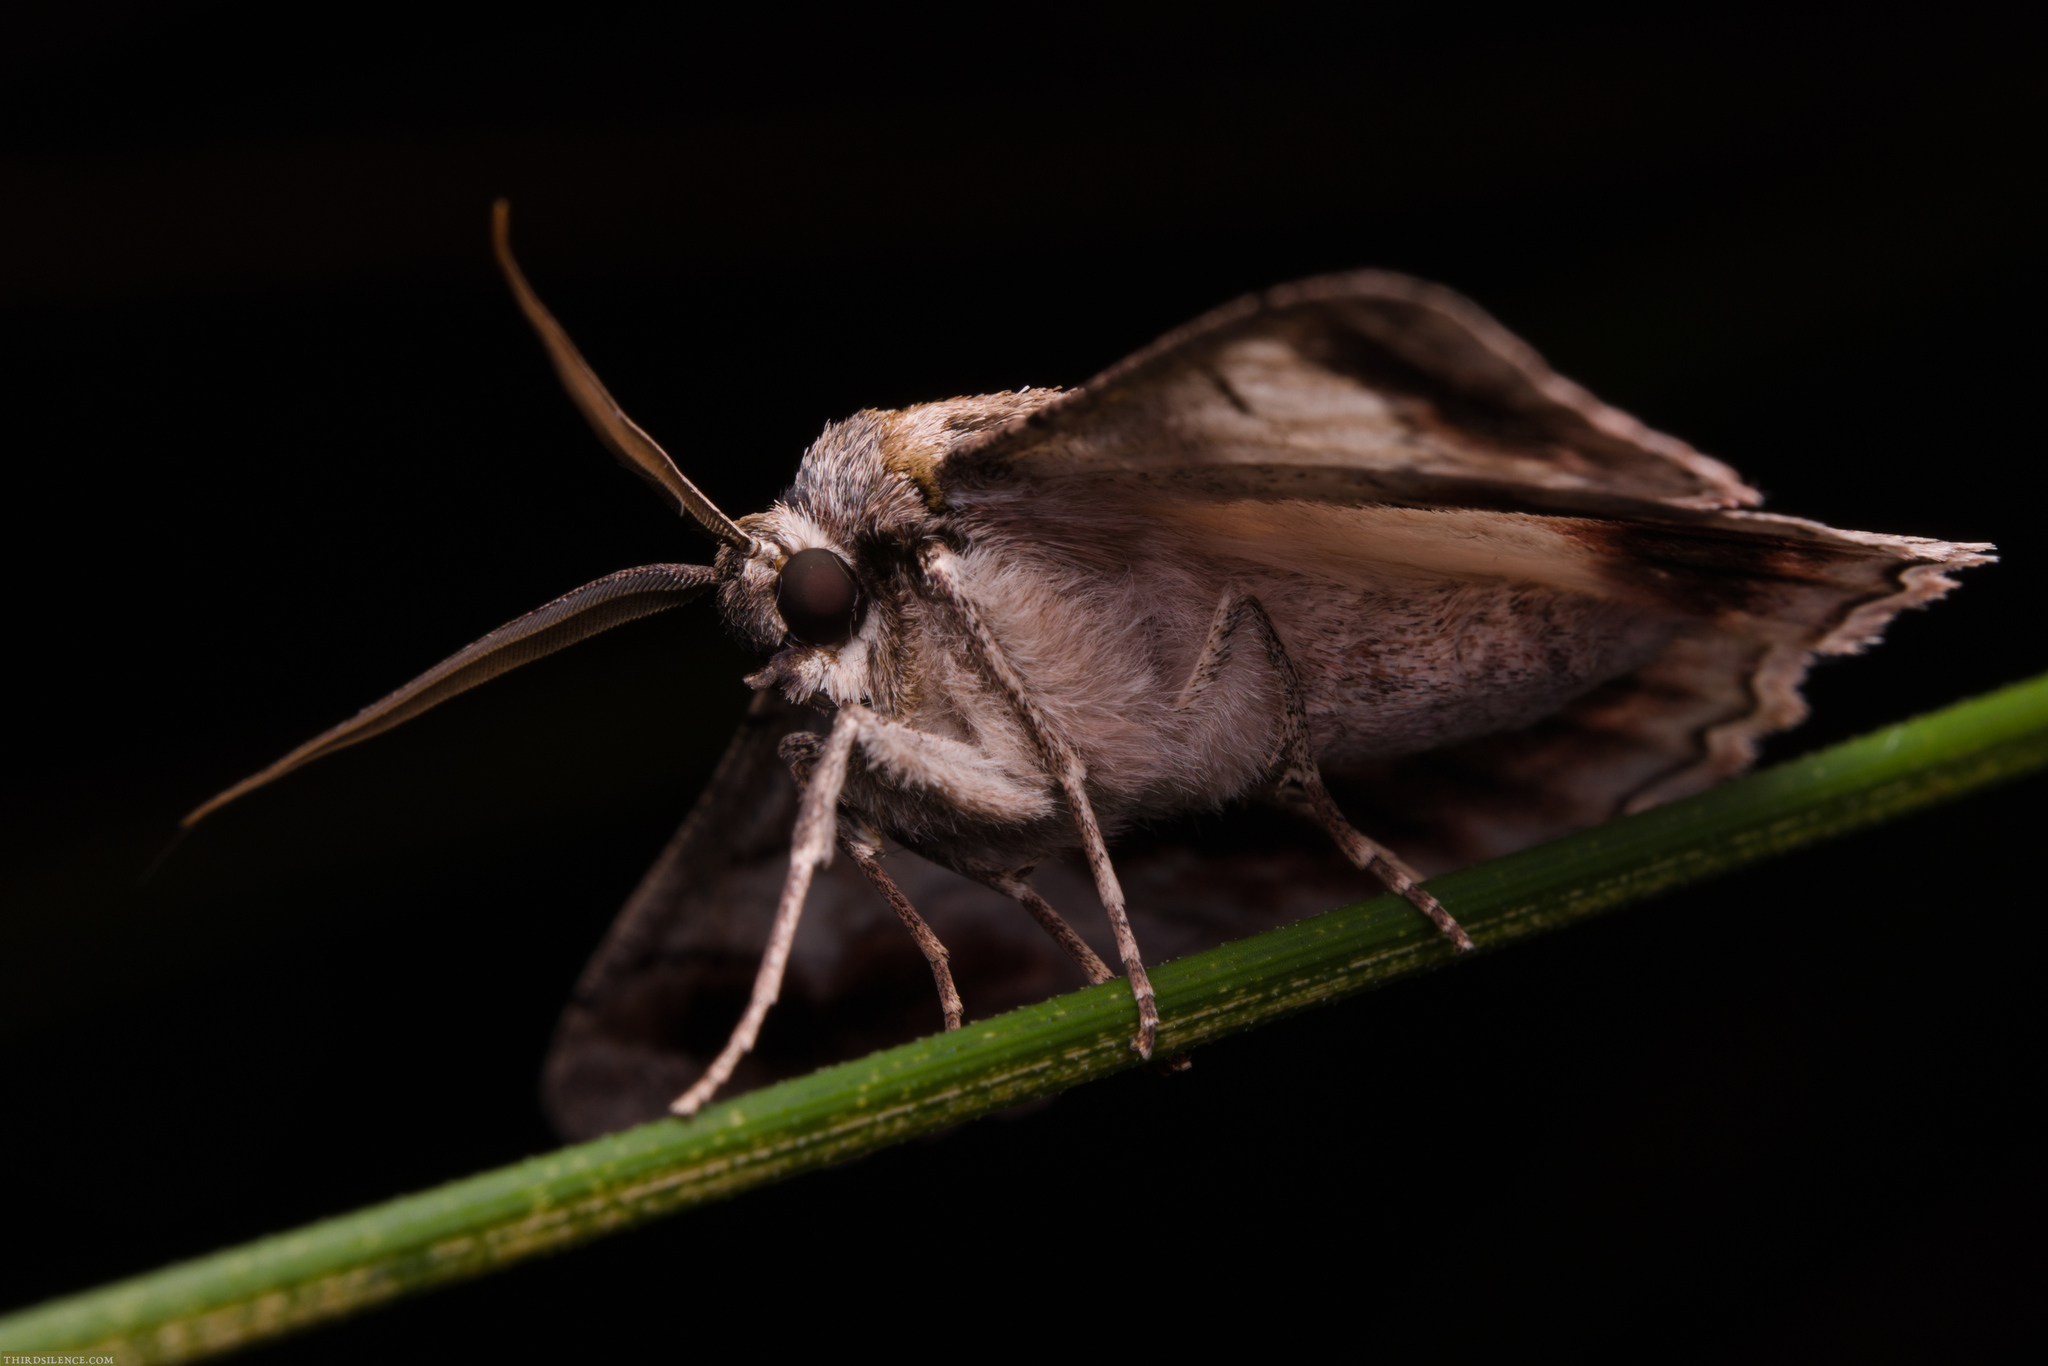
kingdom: Animalia
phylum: Arthropoda
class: Insecta
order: Lepidoptera
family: Geometridae
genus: Crypsiphona
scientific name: Crypsiphona ocultaria
